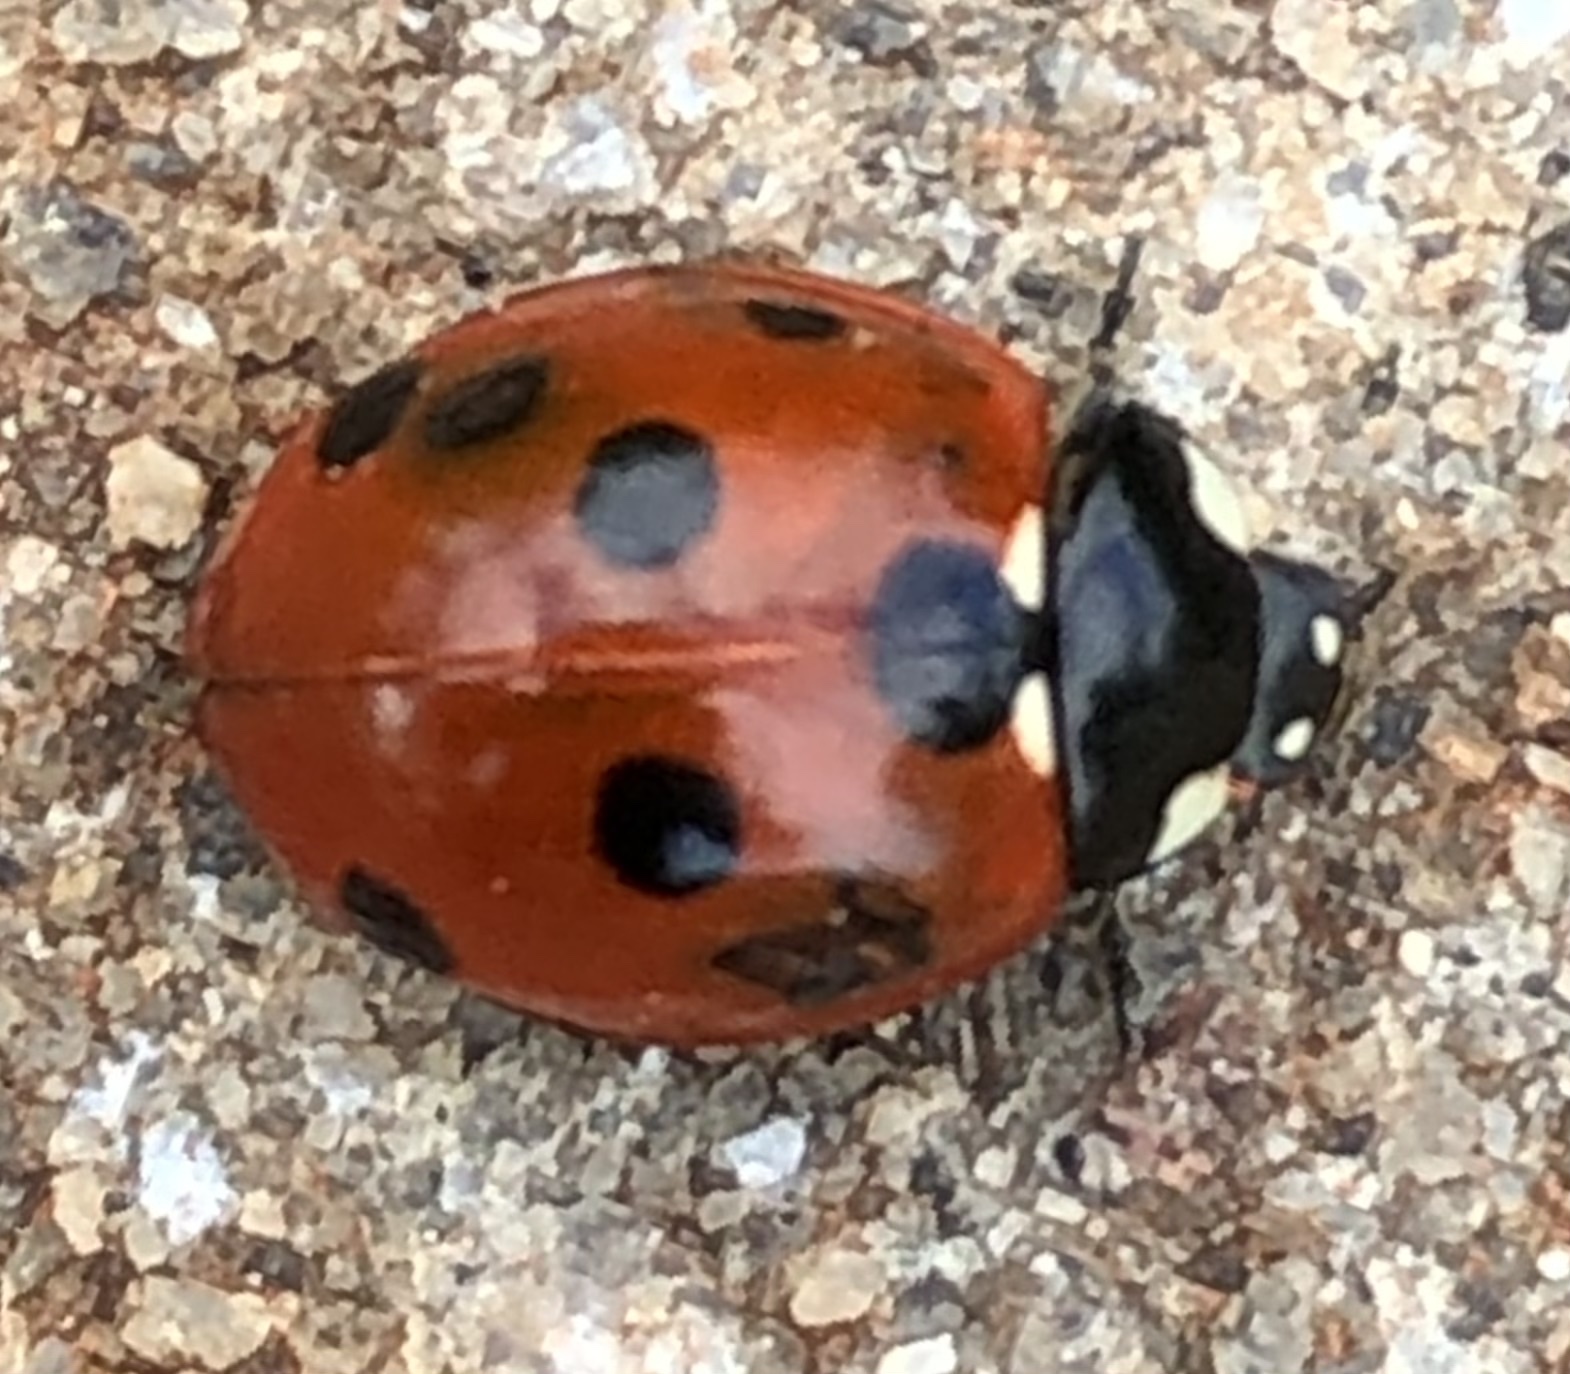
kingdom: Animalia
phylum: Arthropoda
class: Insecta
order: Coleoptera
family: Coccinellidae
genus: Coccinella
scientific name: Coccinella septempunctata
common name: Sevenspotted lady beetle
